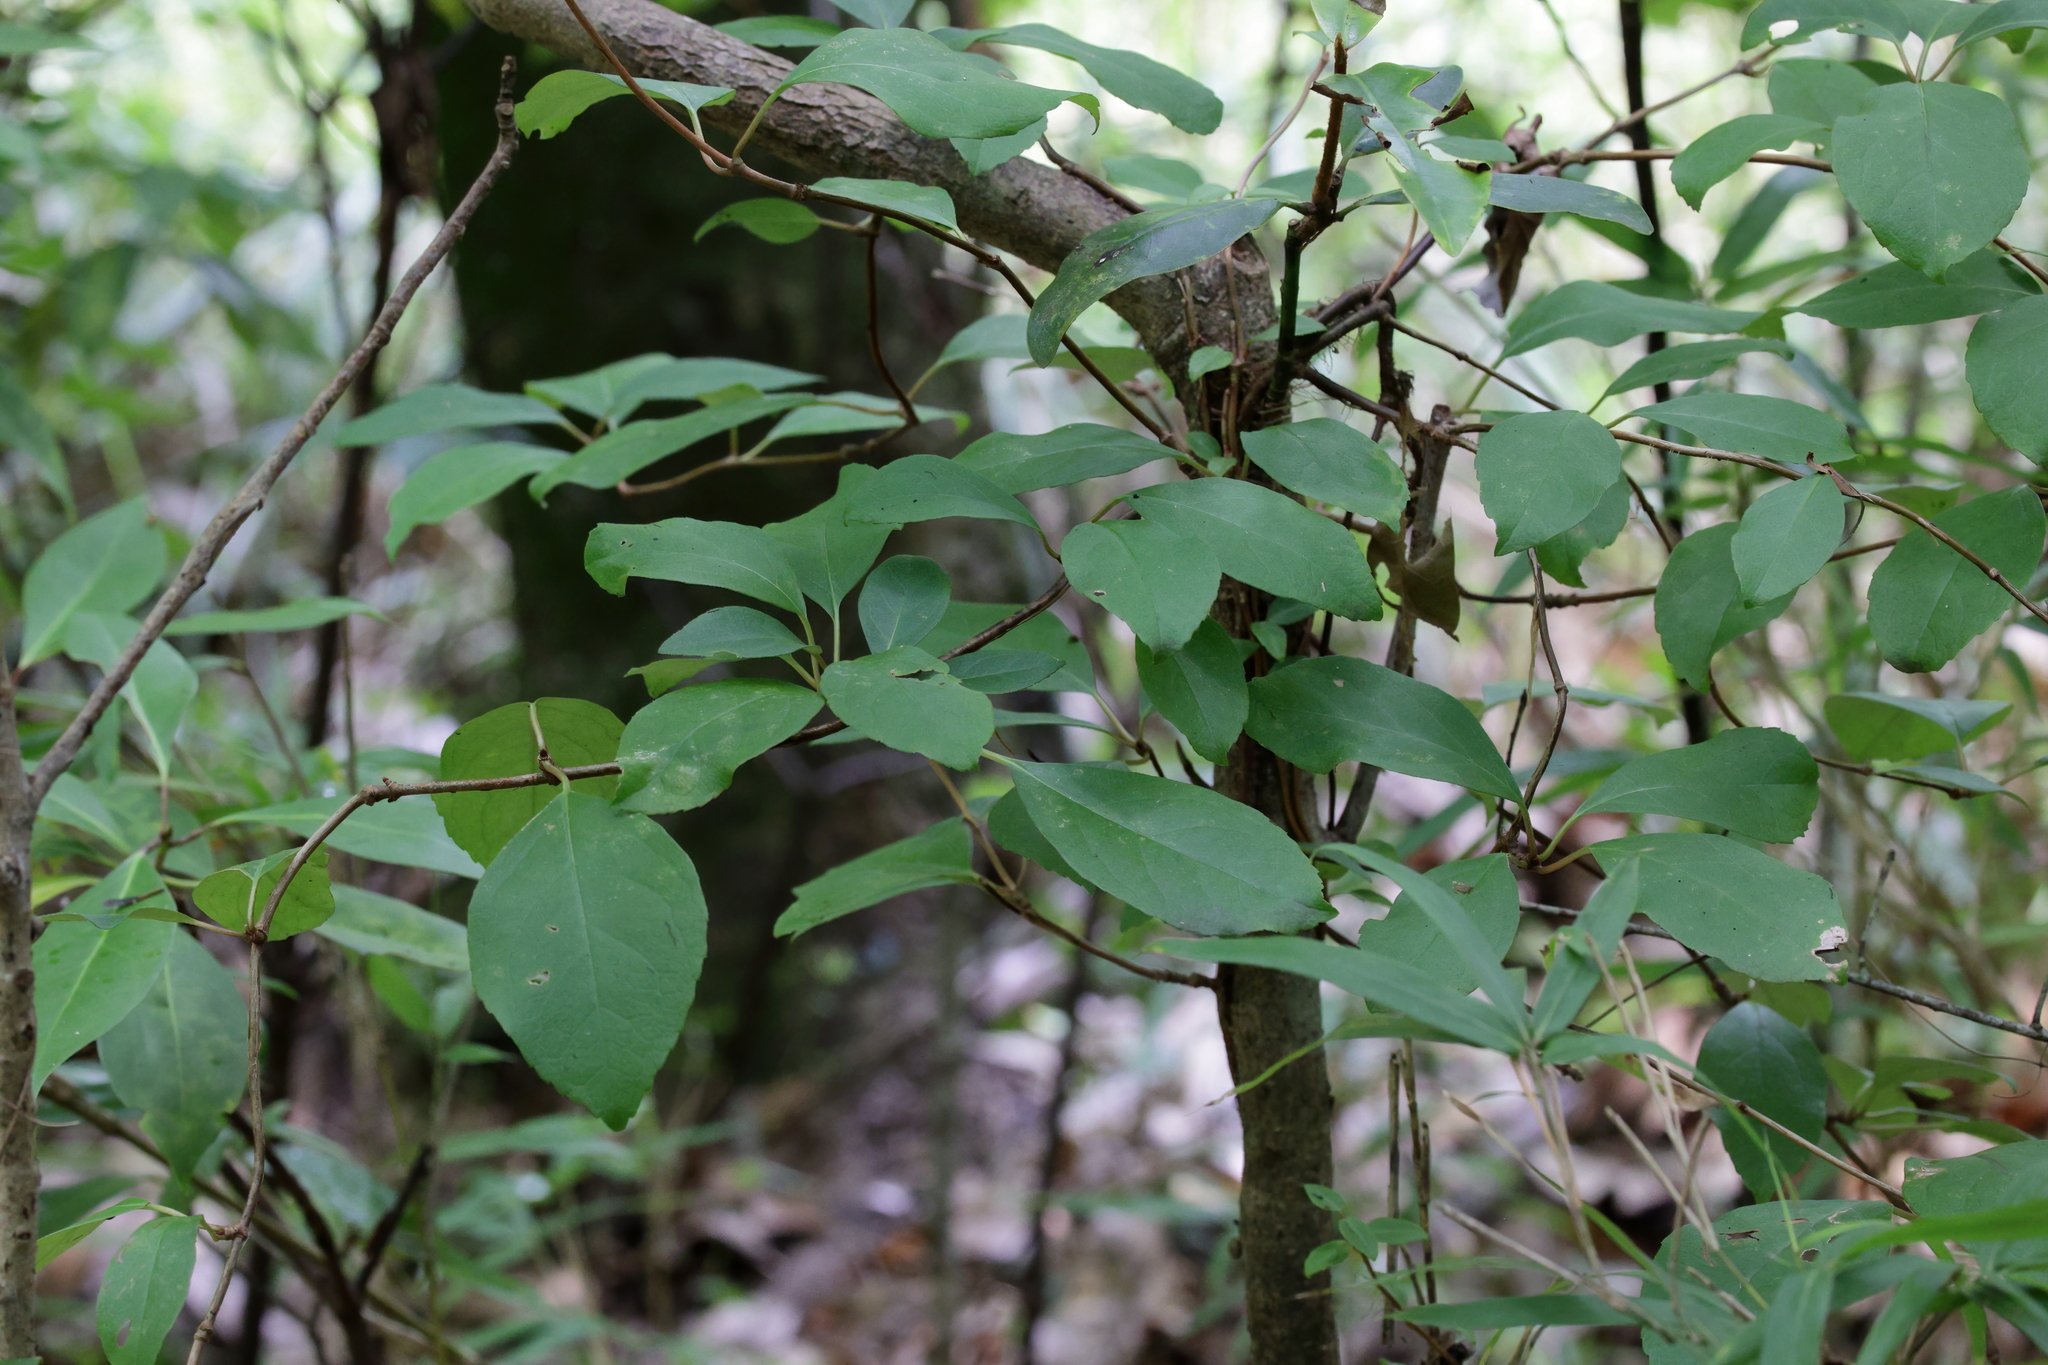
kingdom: Plantae
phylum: Tracheophyta
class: Magnoliopsida
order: Cornales
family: Hydrangeaceae
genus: Hydrangea
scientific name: Hydrangea barbara
